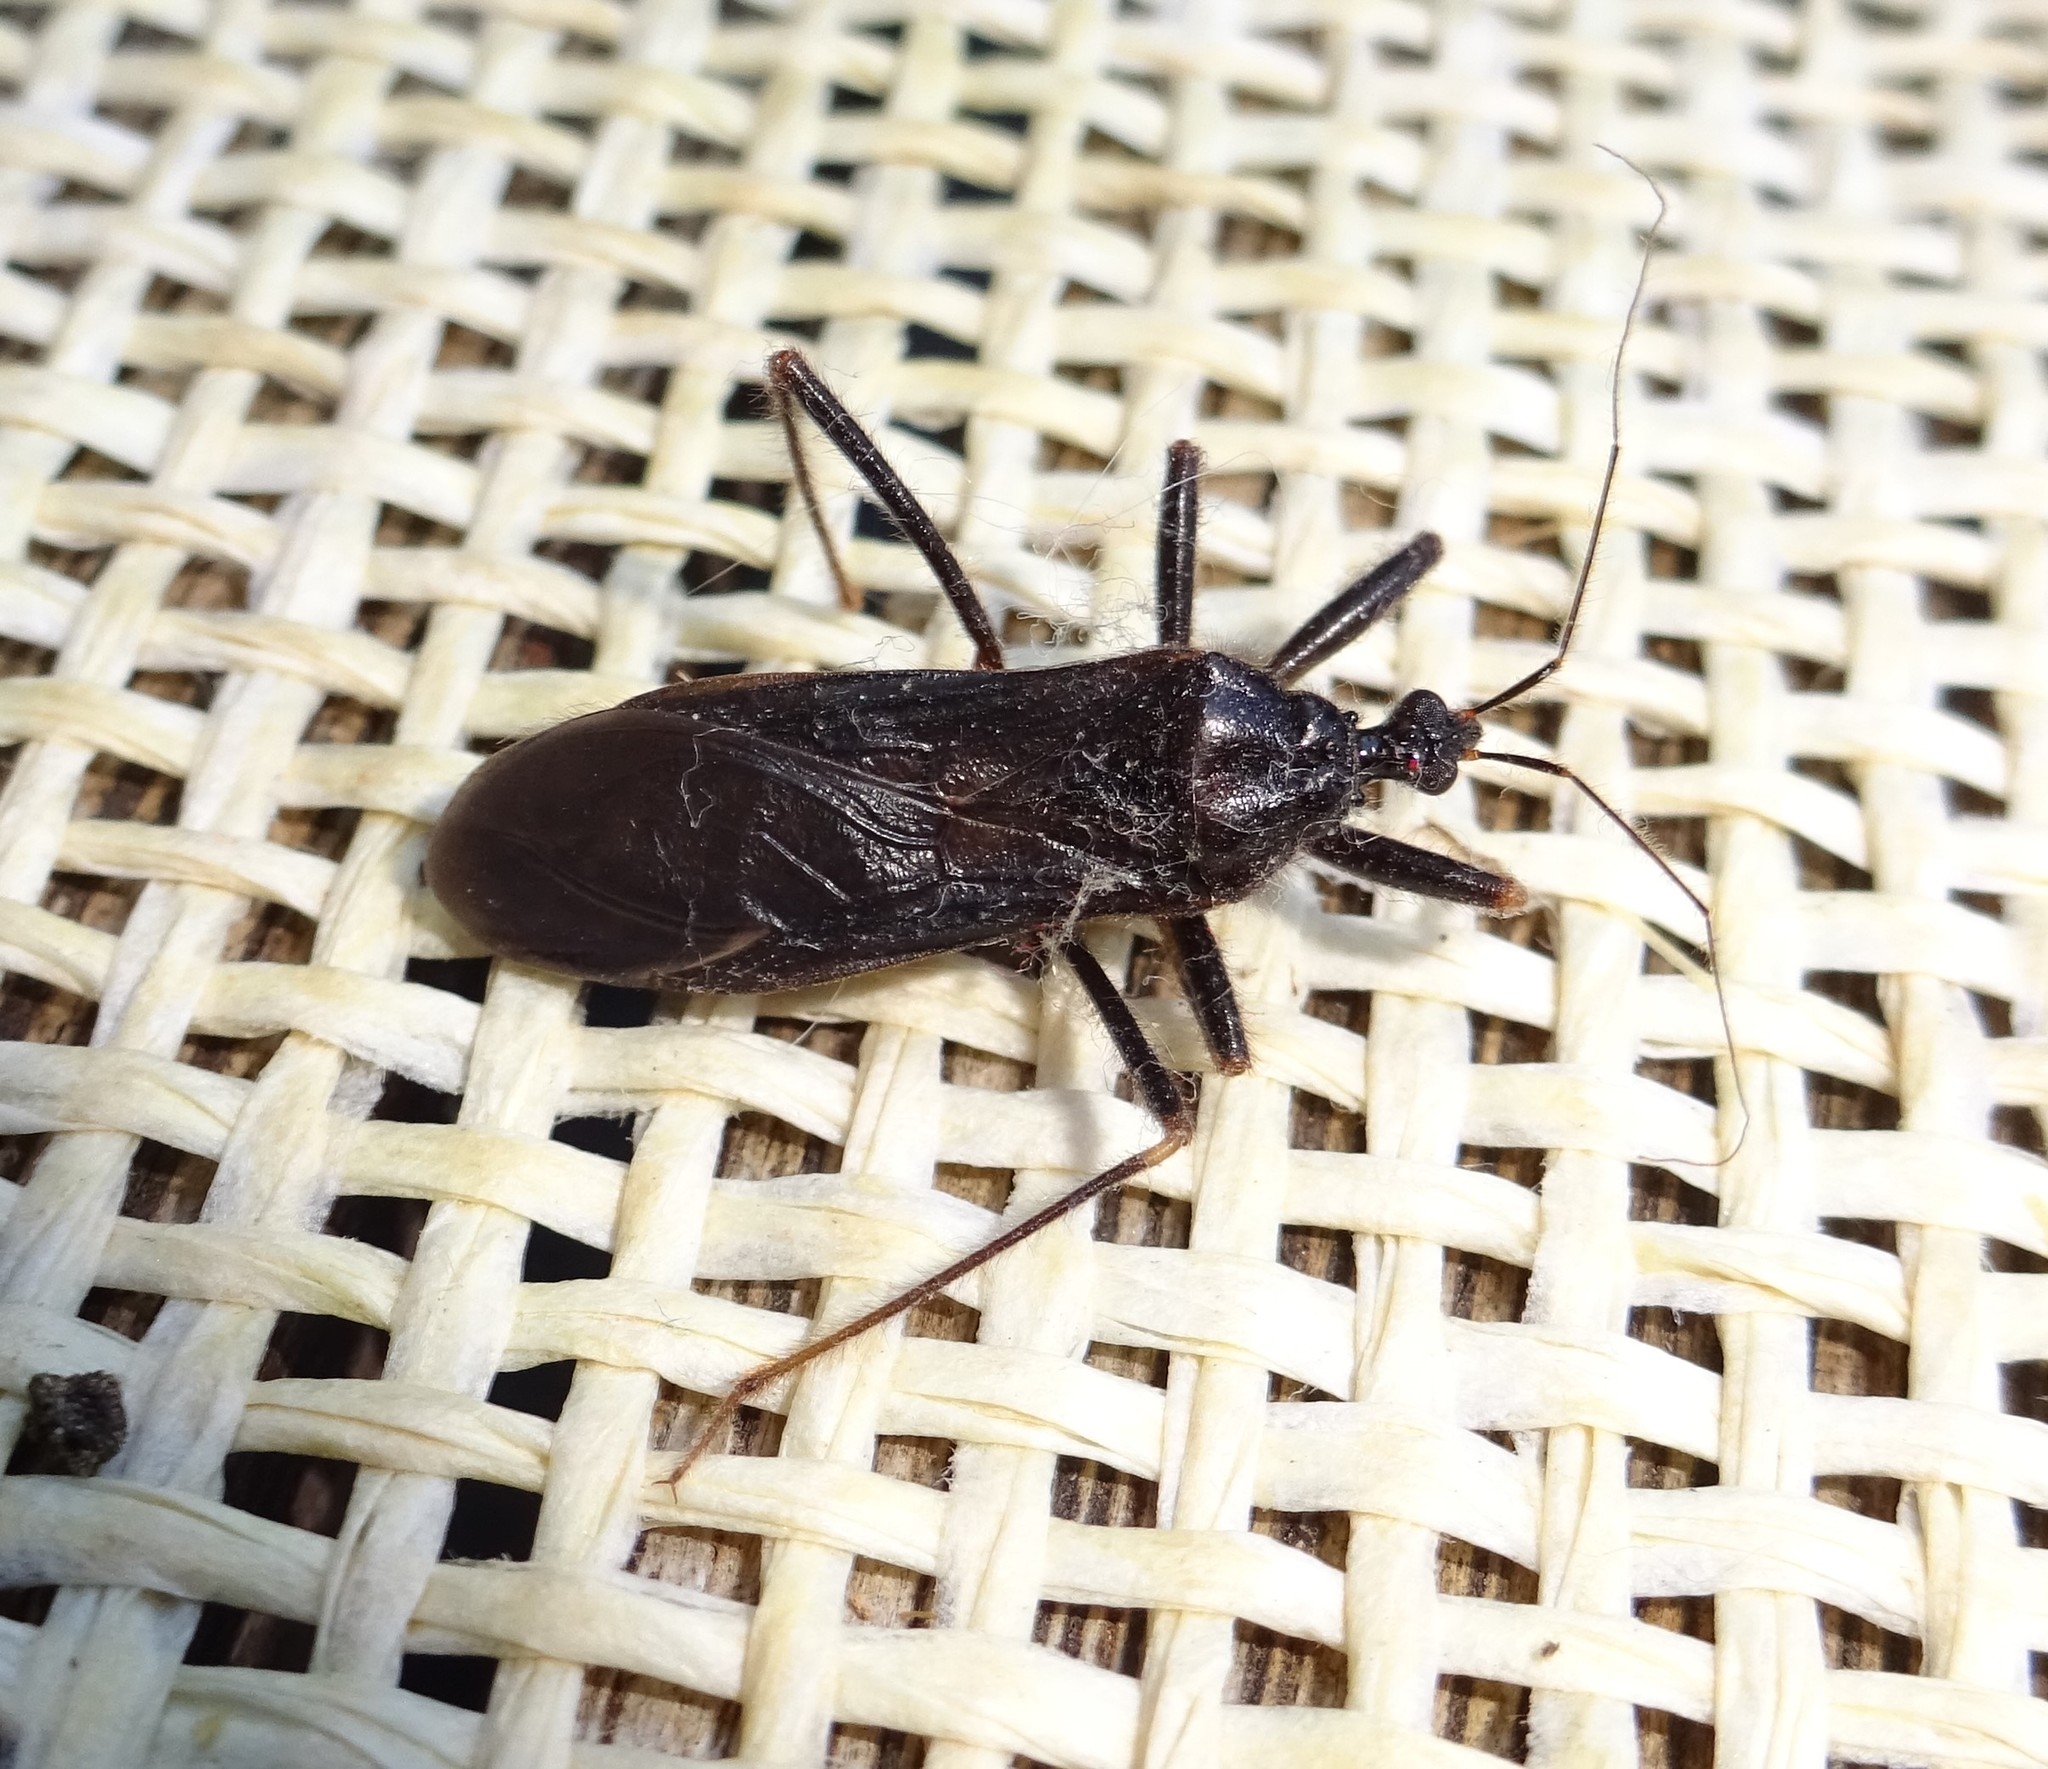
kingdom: Animalia
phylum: Arthropoda
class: Insecta
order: Hemiptera
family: Reduviidae
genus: Reduvius
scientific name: Reduvius personatus
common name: Masked hunter
